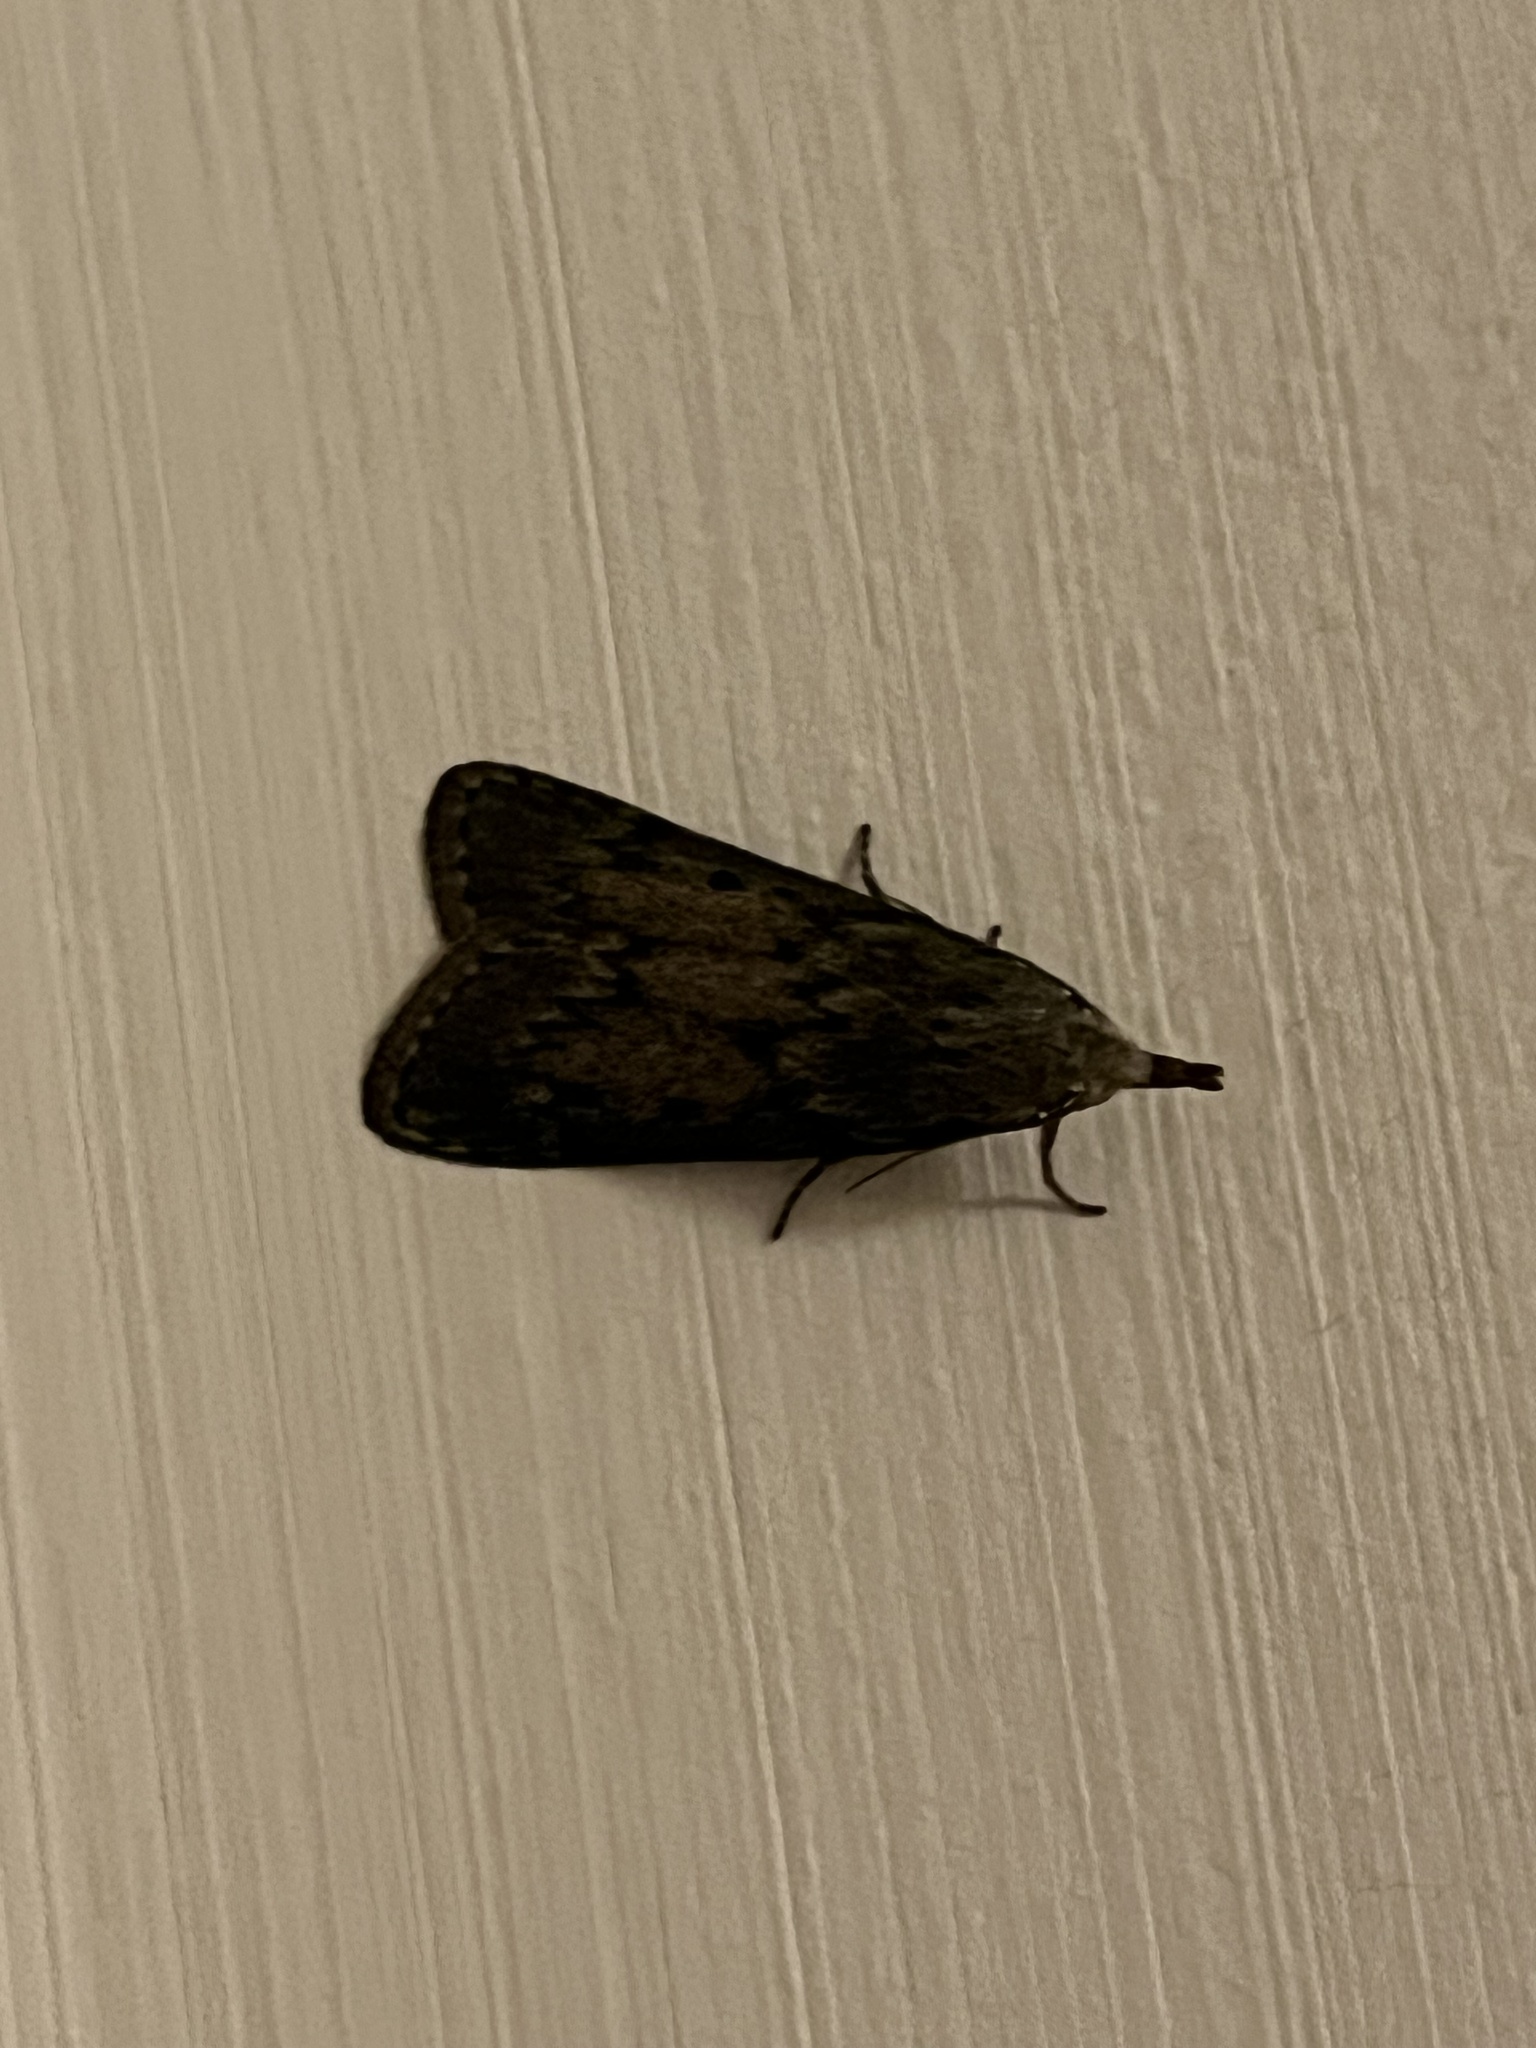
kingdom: Animalia
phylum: Arthropoda
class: Insecta
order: Lepidoptera
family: Pyralidae
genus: Aphomia
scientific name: Aphomia sociella
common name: Bee moth
